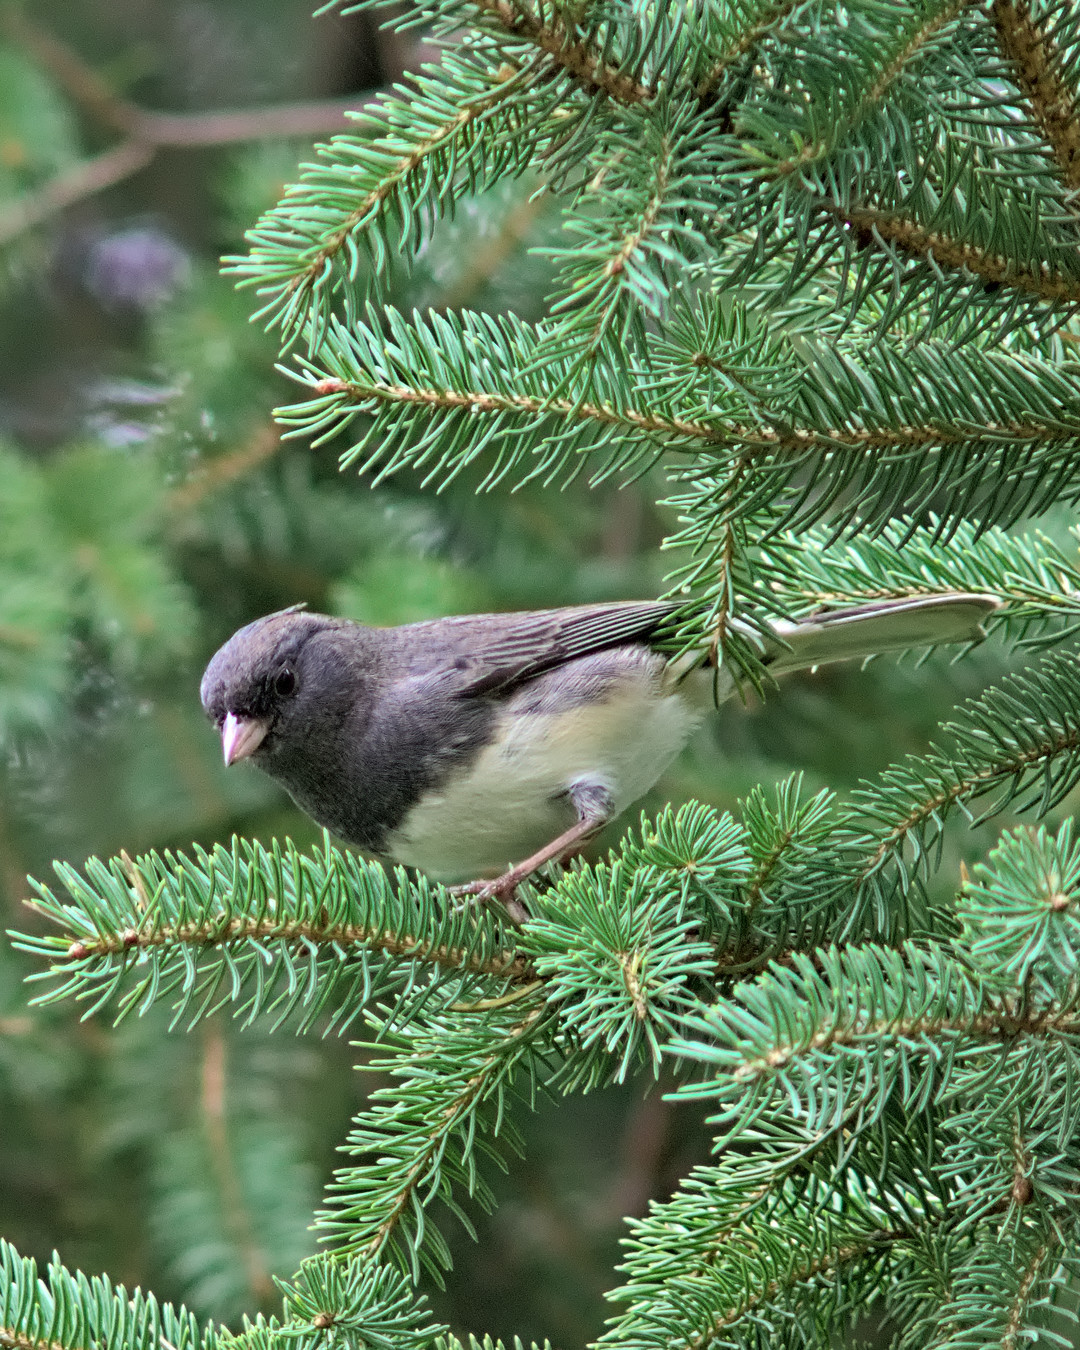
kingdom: Animalia
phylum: Chordata
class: Aves
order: Passeriformes
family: Passerellidae
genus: Junco
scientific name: Junco hyemalis
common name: Dark-eyed junco
